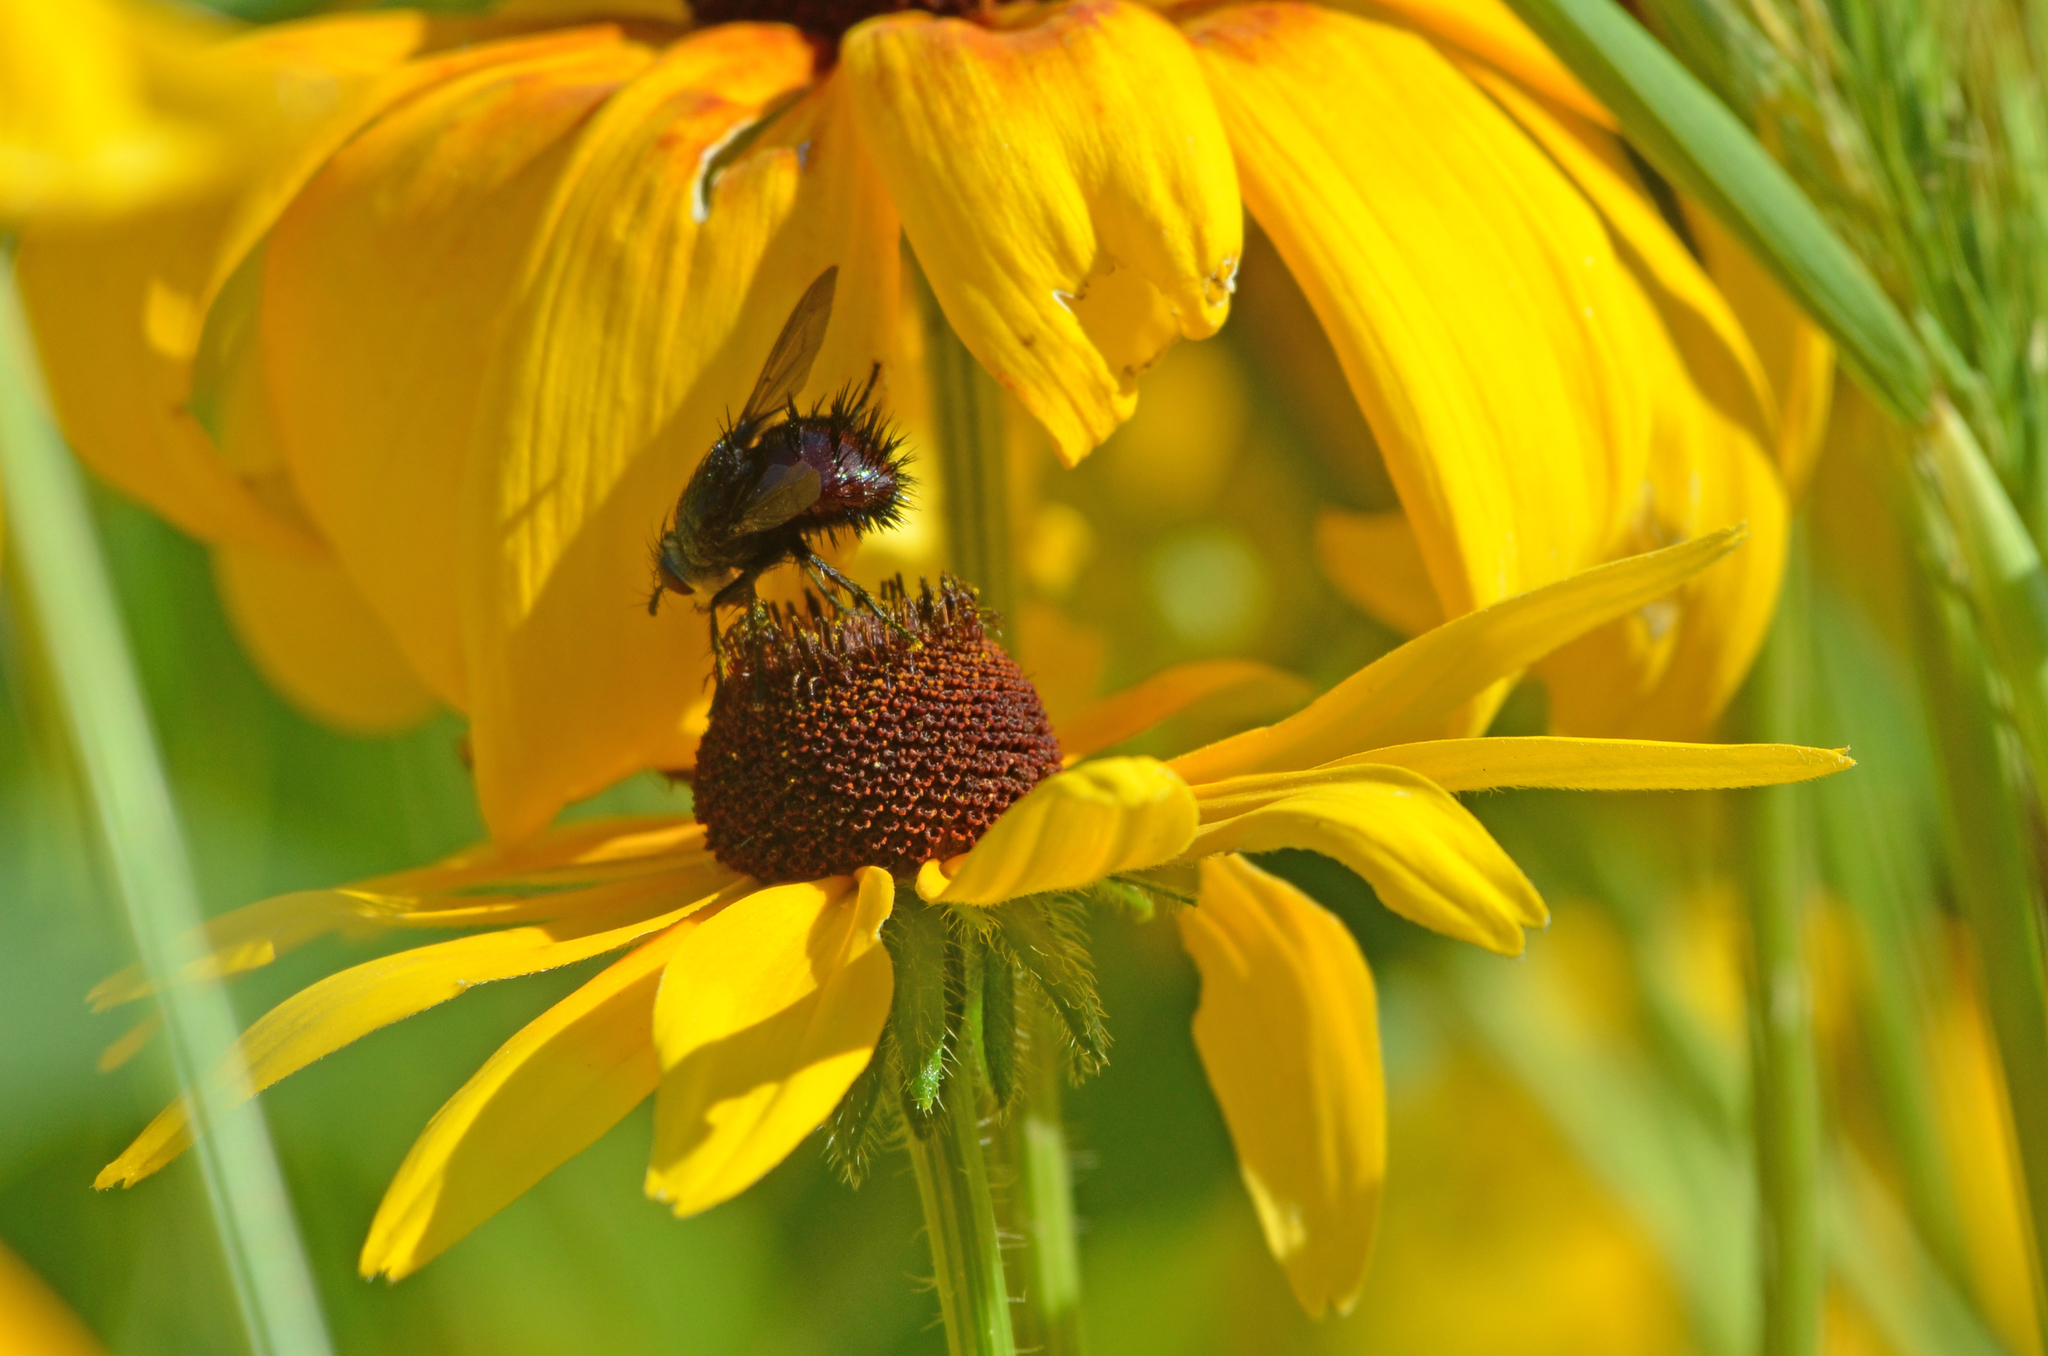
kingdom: Animalia
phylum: Arthropoda
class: Insecta
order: Diptera
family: Tachinidae
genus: Juriniopsis
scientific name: Juriniopsis adusta
